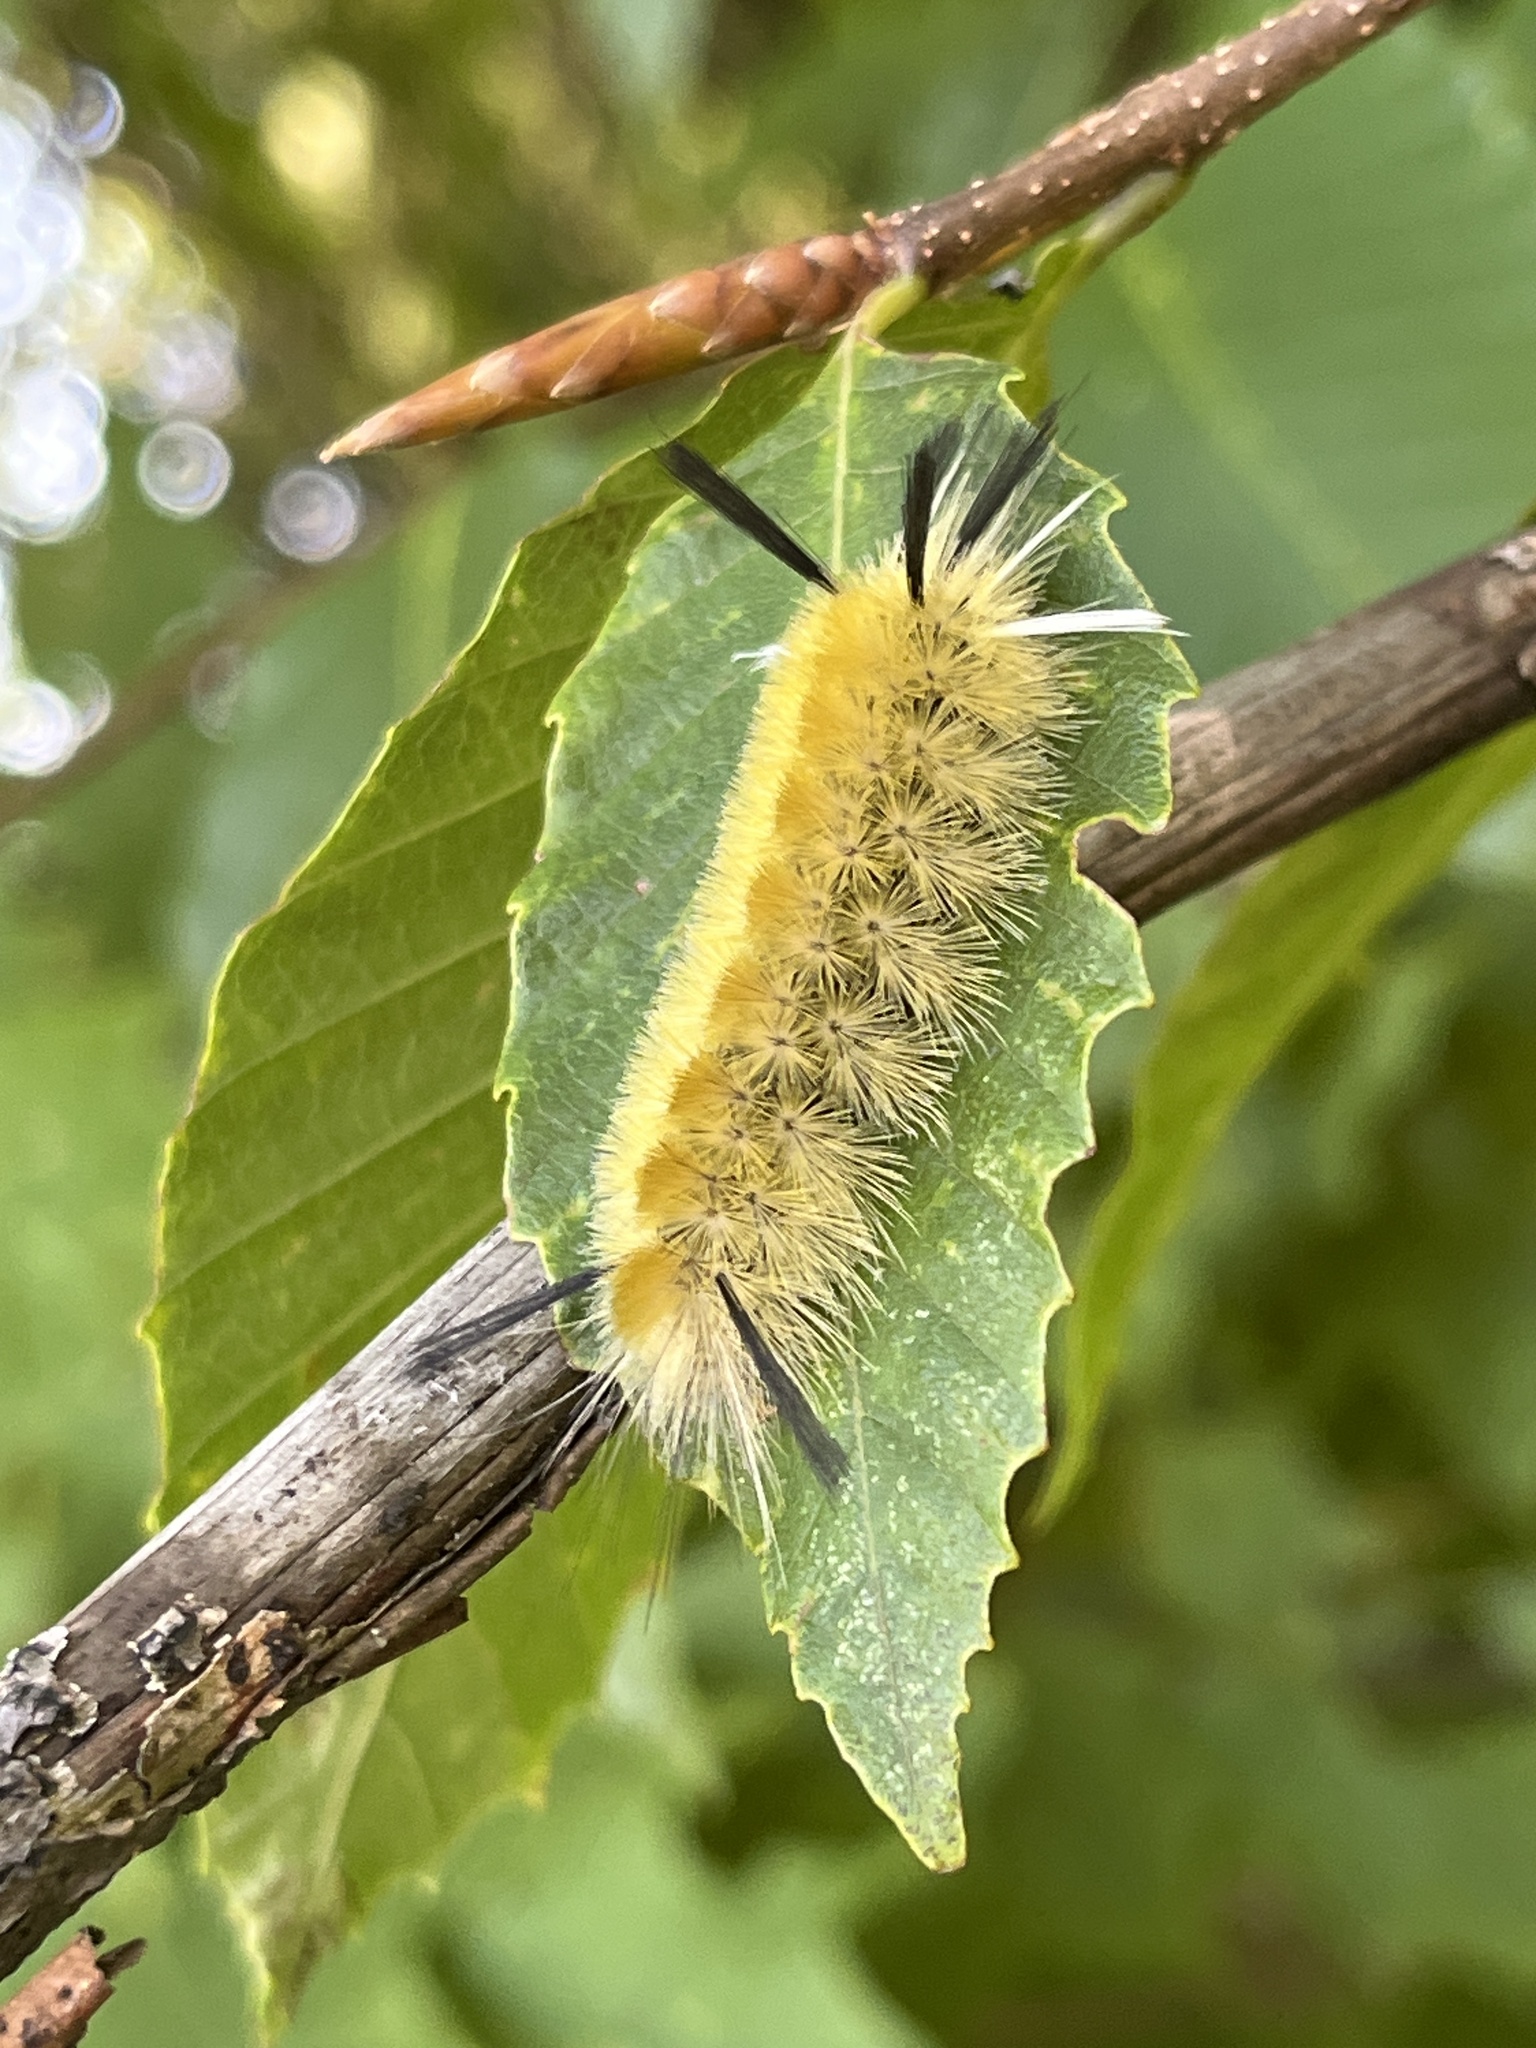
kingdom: Animalia
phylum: Arthropoda
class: Insecta
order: Lepidoptera
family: Erebidae
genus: Halysidota
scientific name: Halysidota tessellaris
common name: Banded tussock moth
